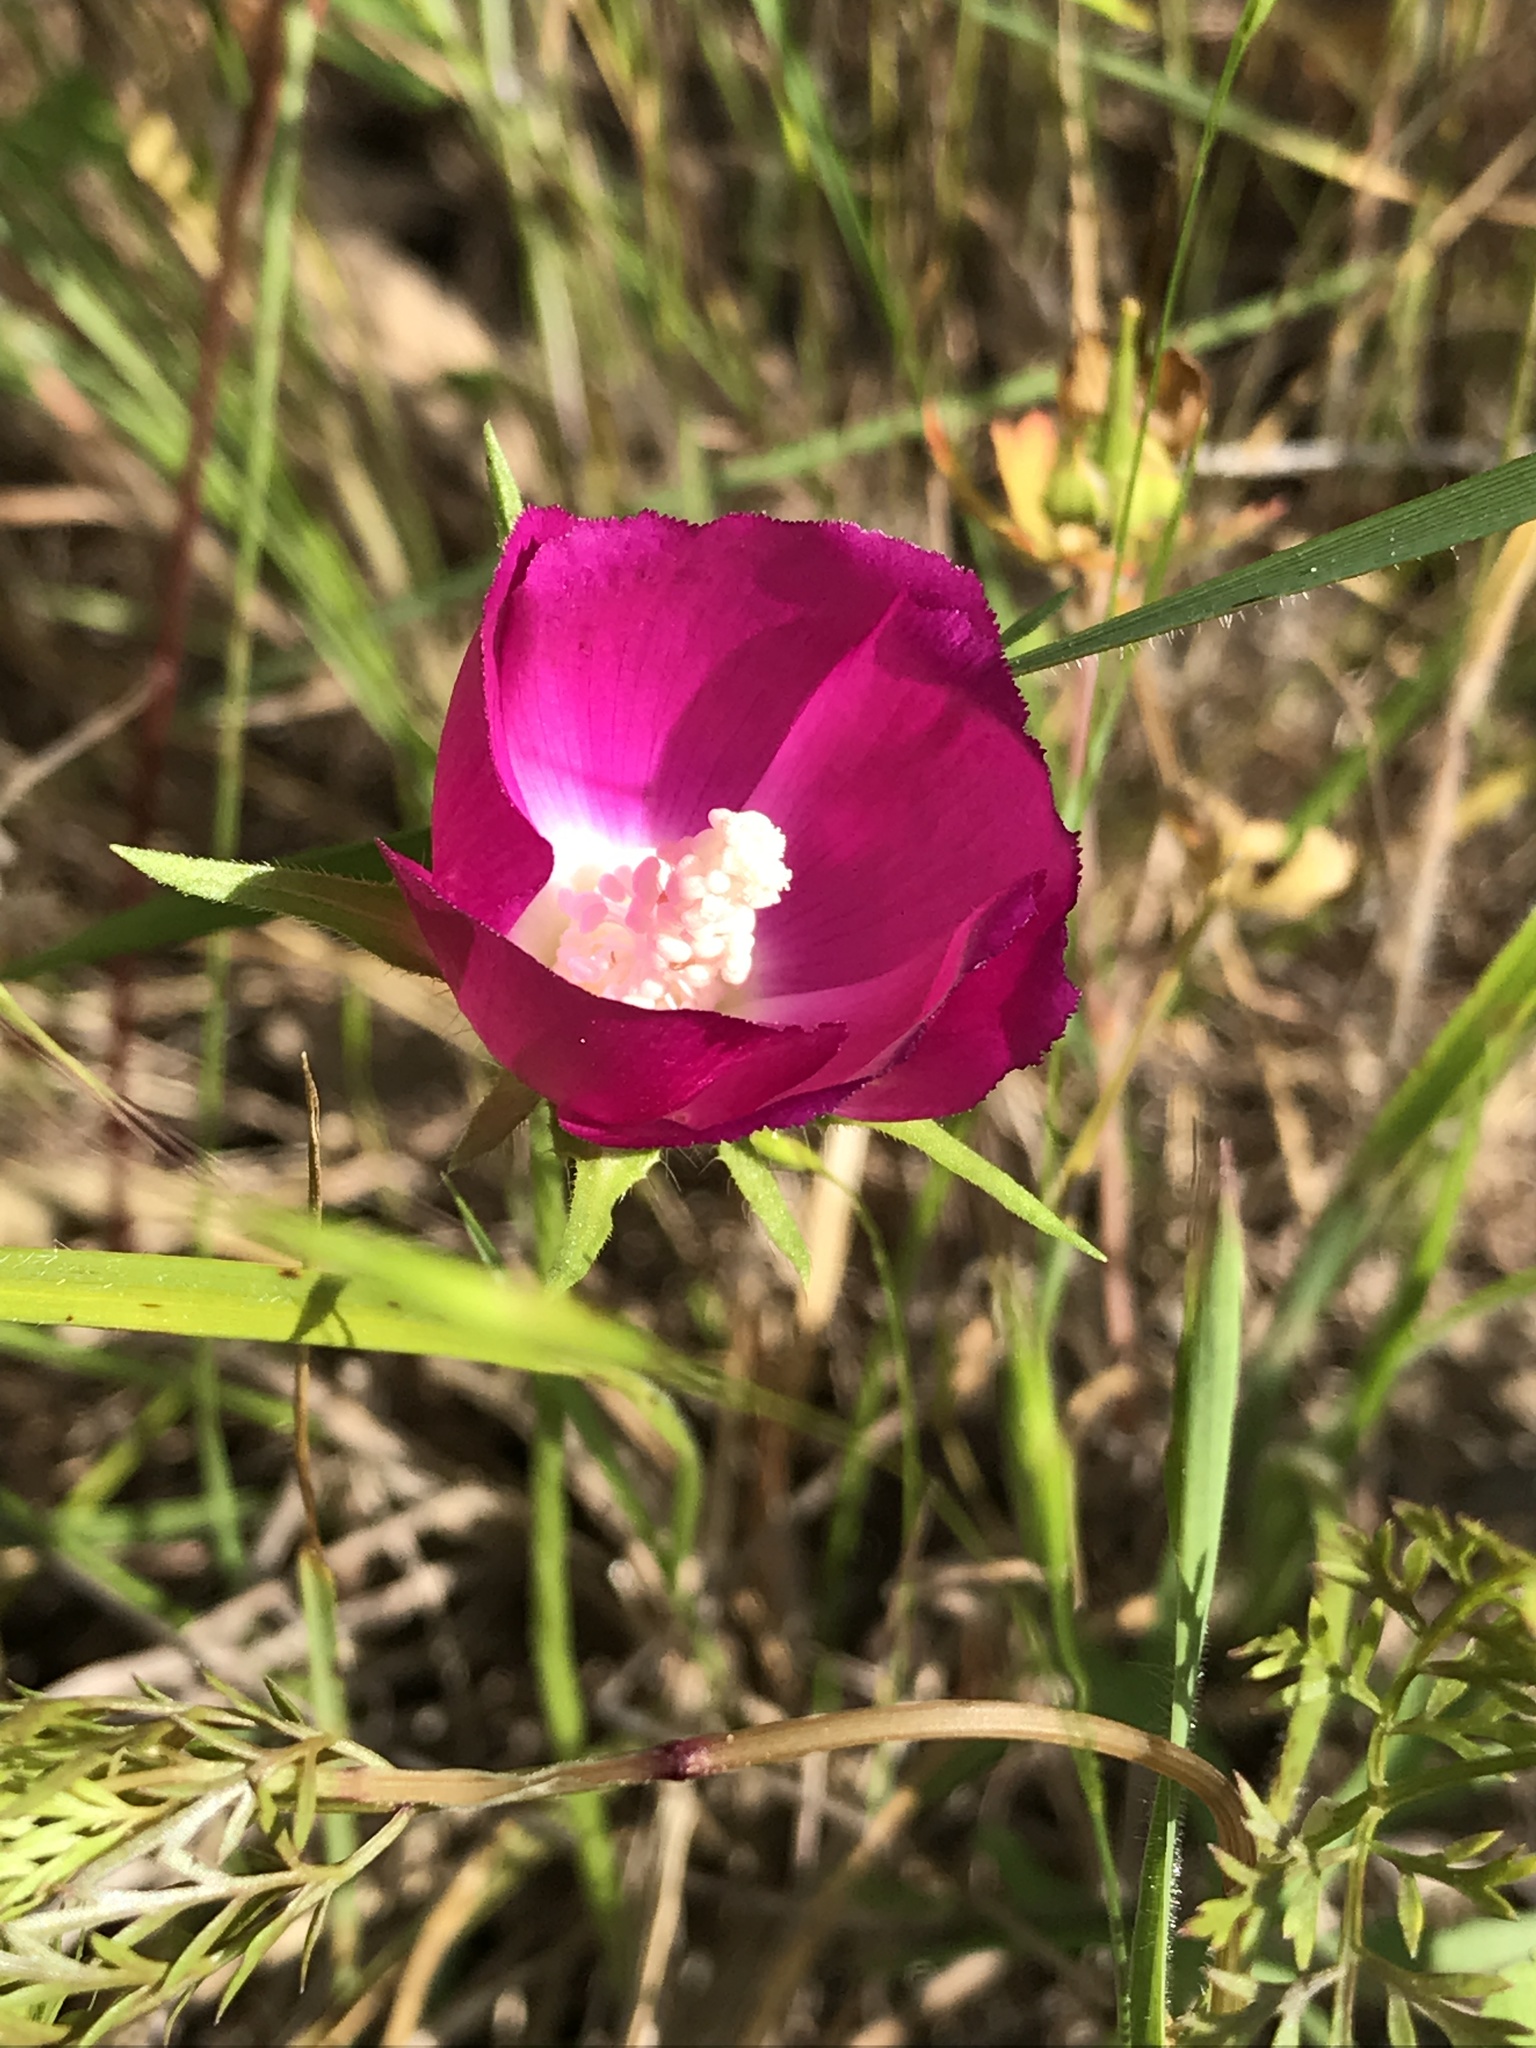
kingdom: Plantae
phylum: Tracheophyta
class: Magnoliopsida
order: Malvales
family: Malvaceae
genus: Callirhoe
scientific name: Callirhoe involucrata
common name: Purple poppy-mallow
